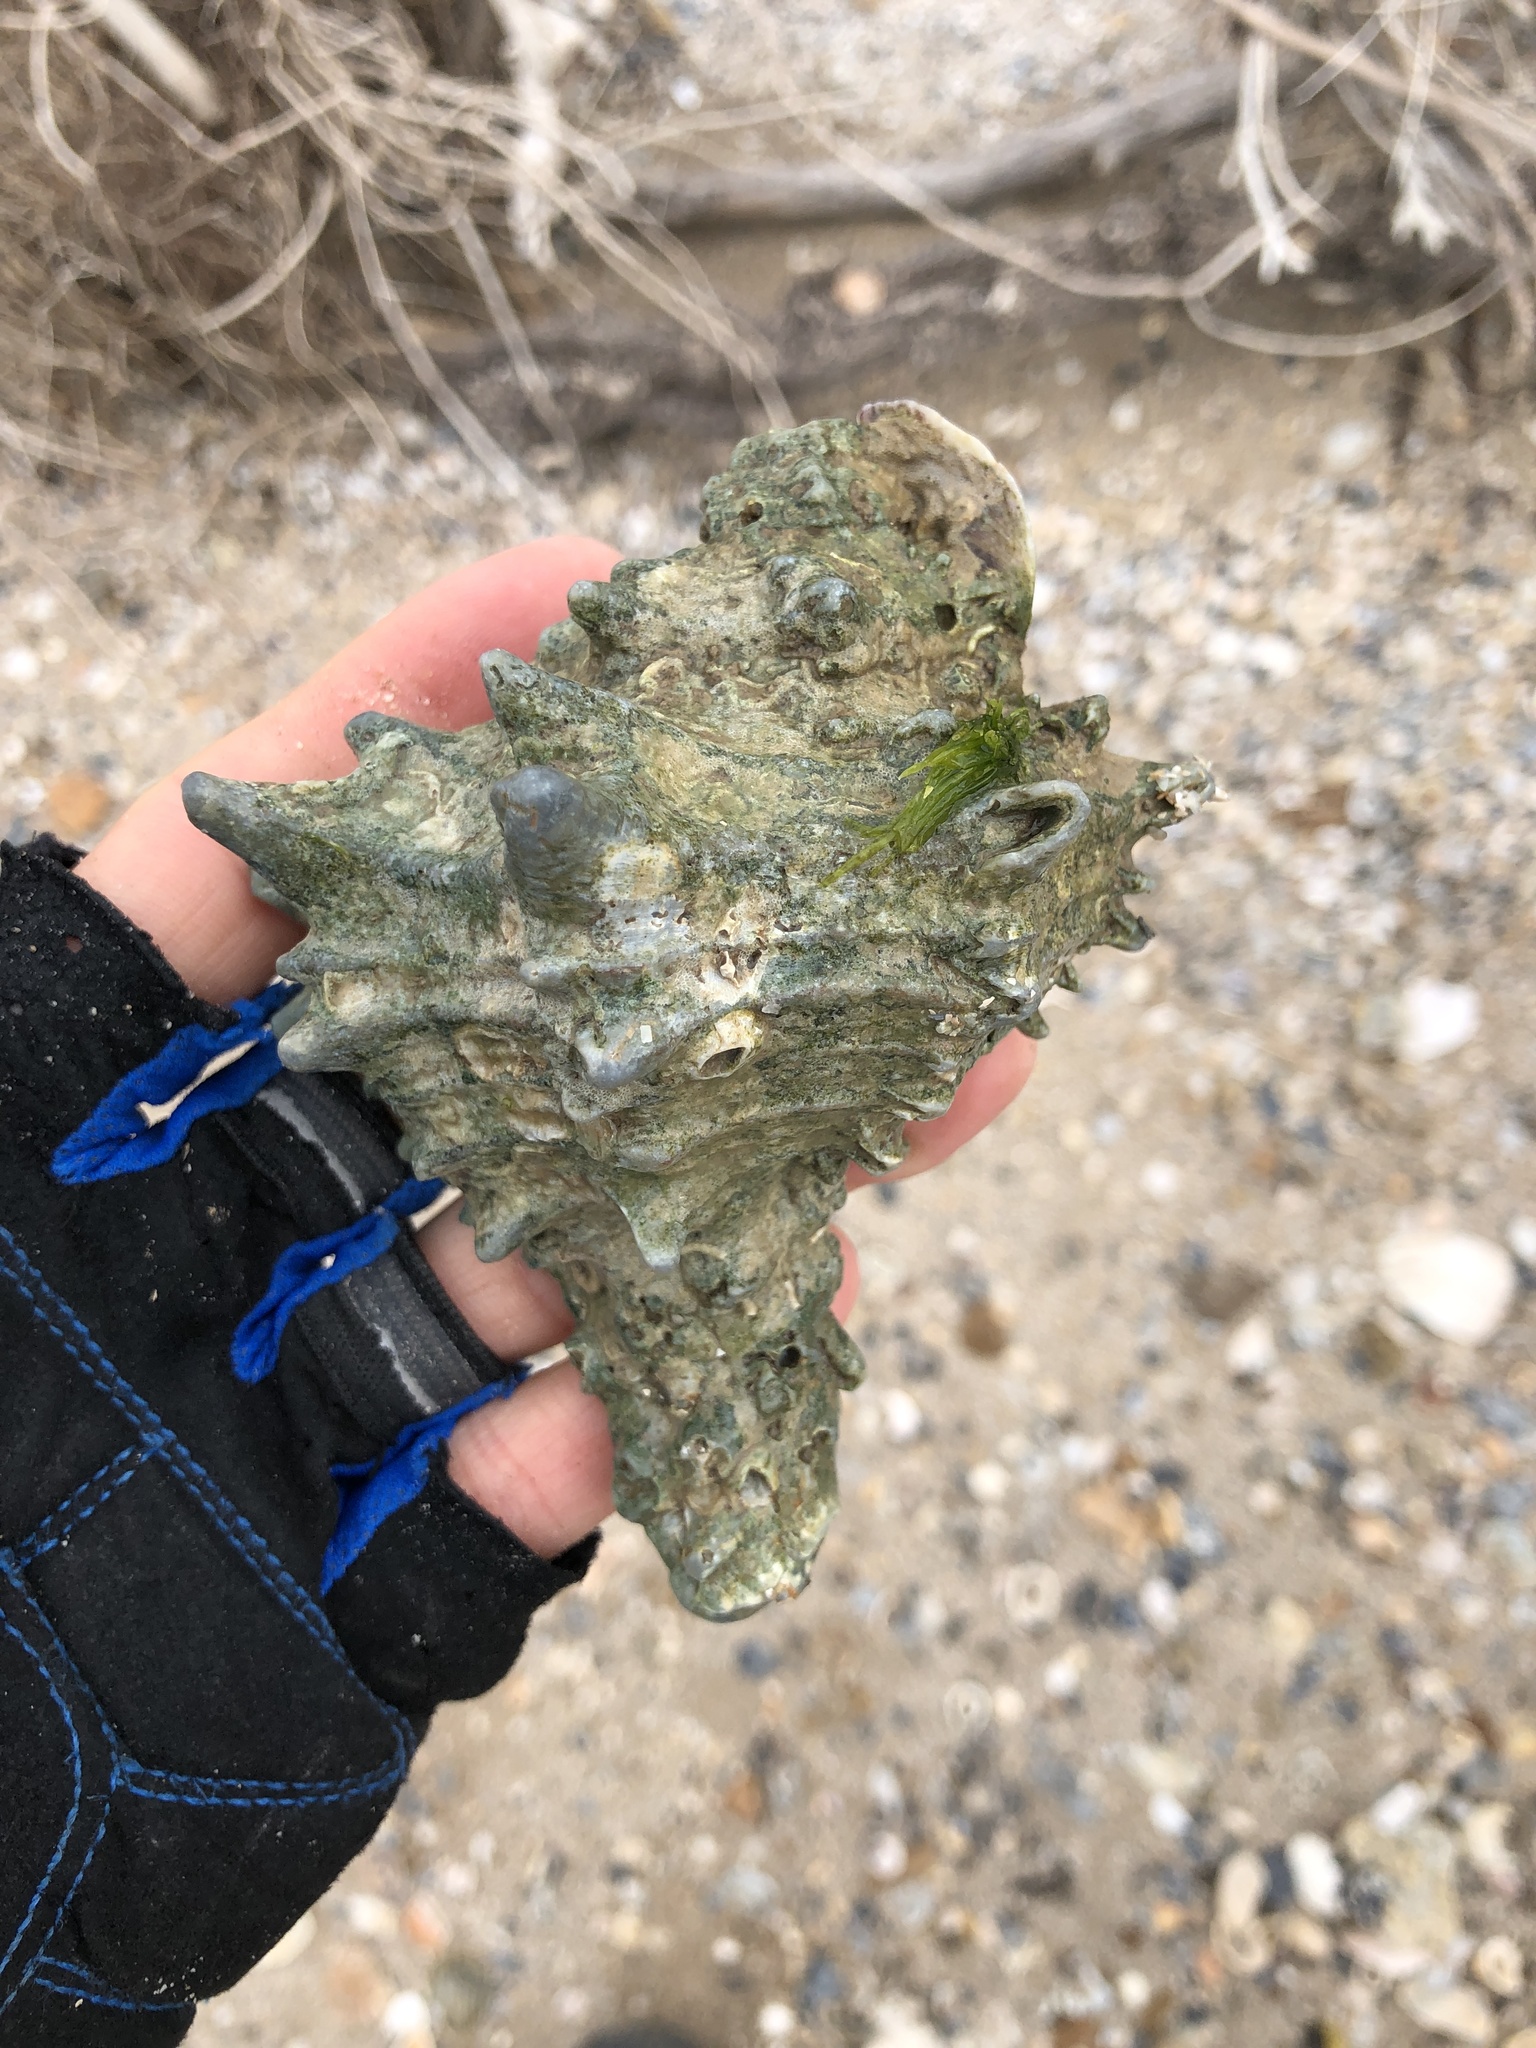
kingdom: Animalia
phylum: Mollusca
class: Gastropoda
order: Neogastropoda
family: Muricidae
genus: Hexaplex
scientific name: Hexaplex fulvescens
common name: Tawny murex
